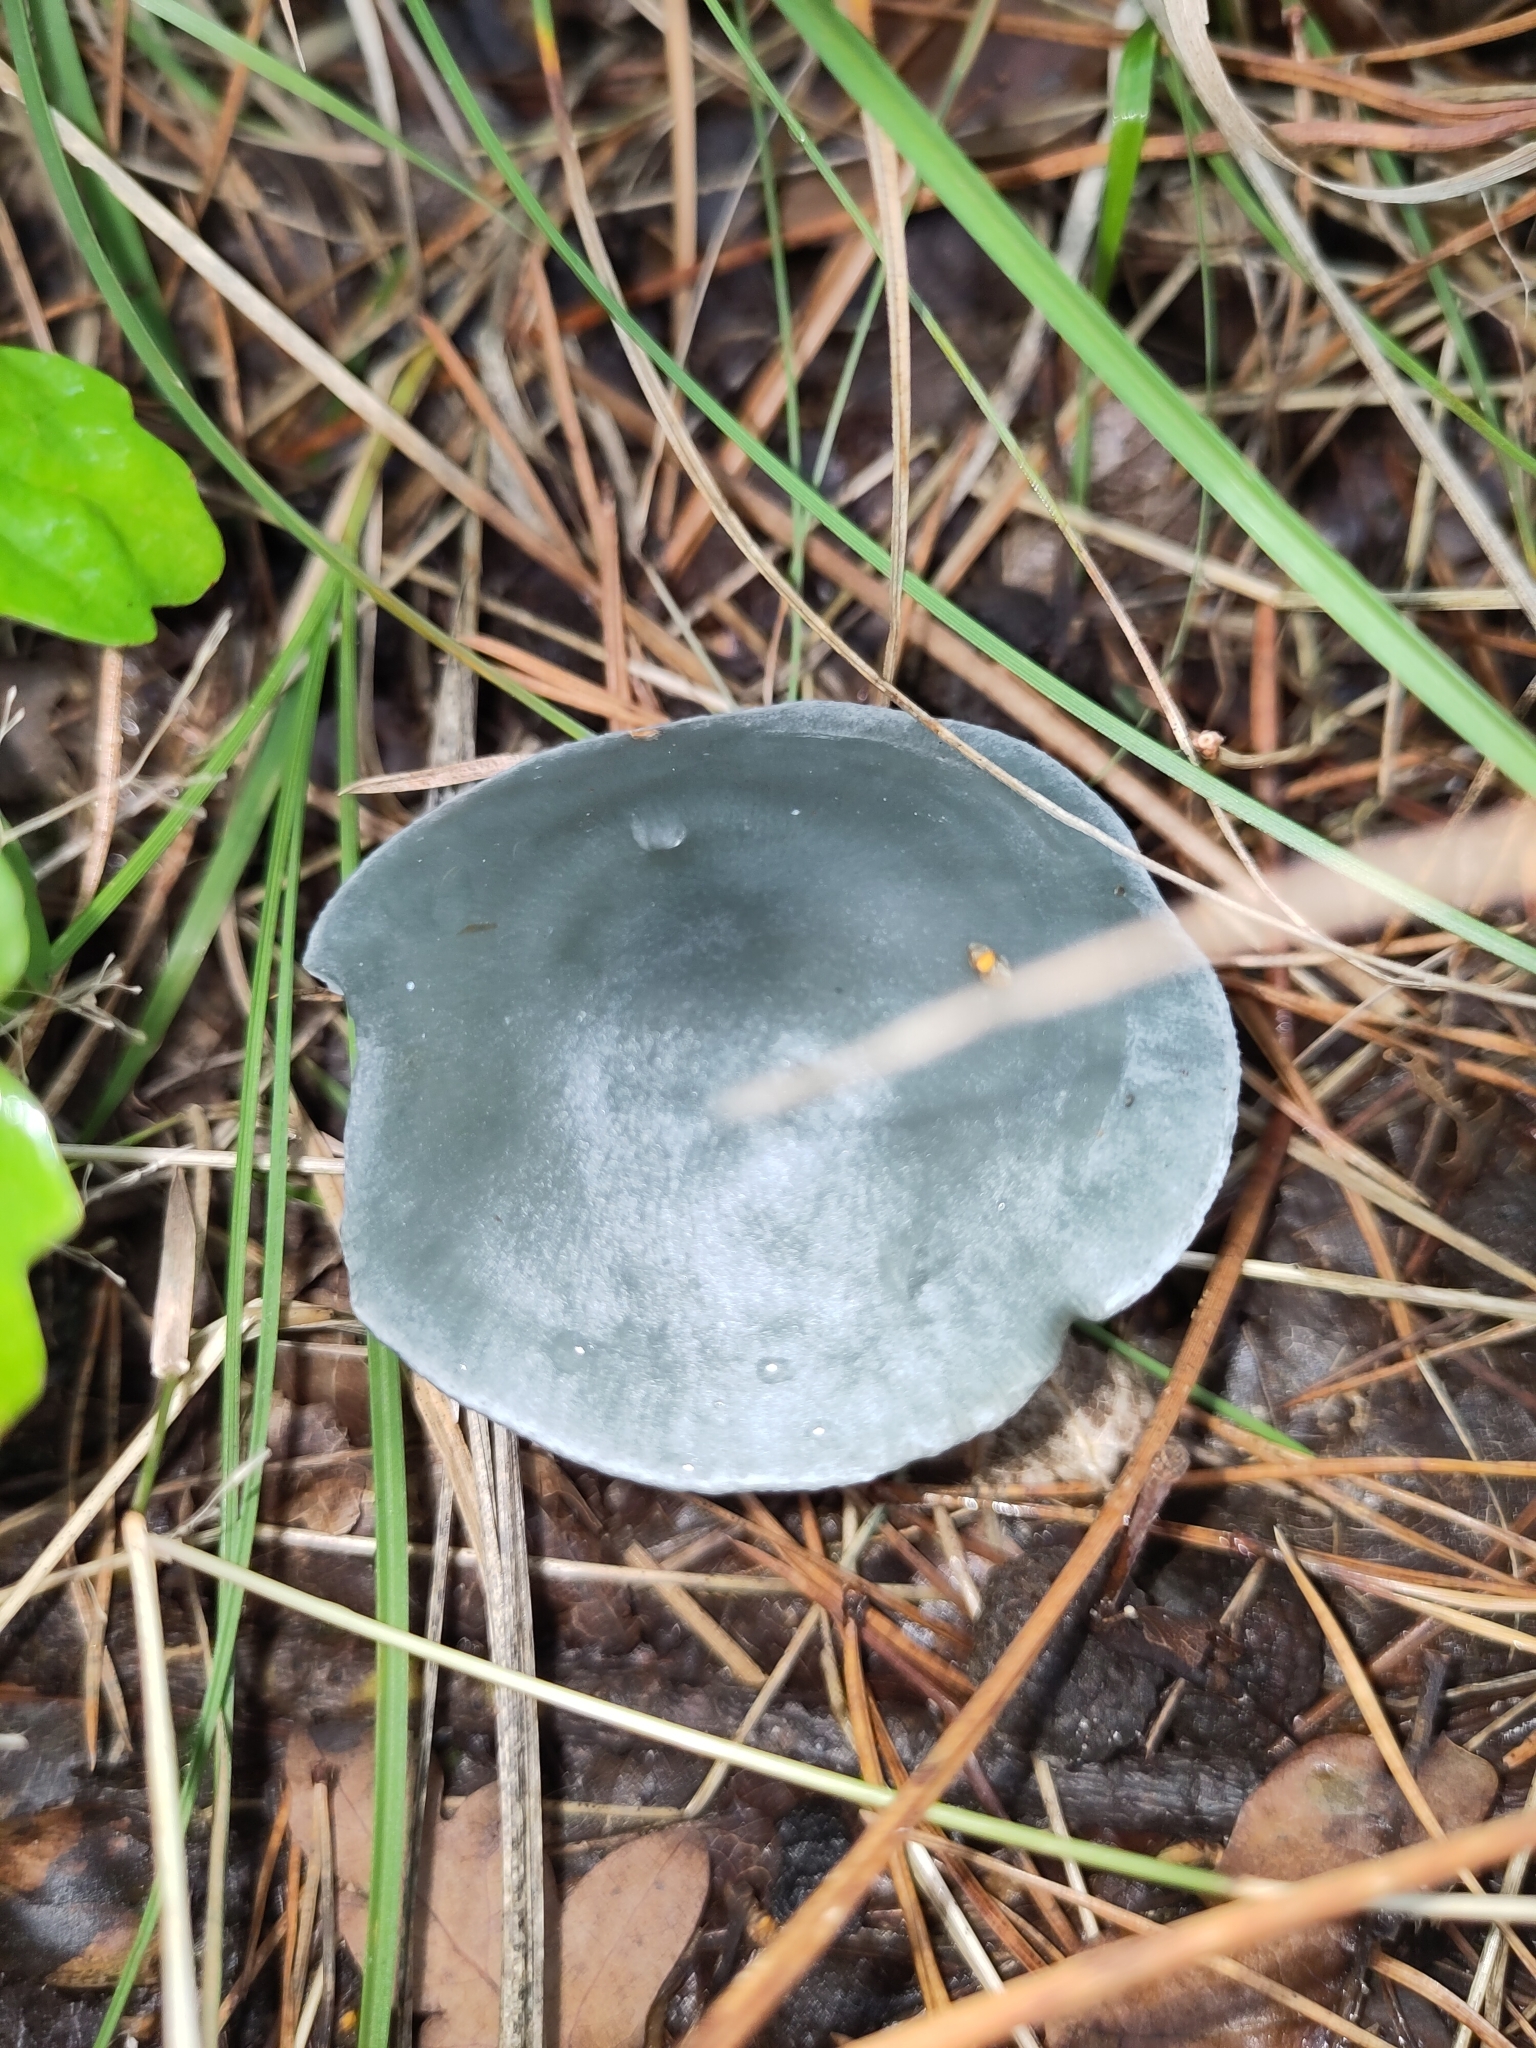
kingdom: Fungi
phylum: Basidiomycota
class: Agaricomycetes
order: Agaricales
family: Tricholomataceae
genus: Collybia
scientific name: Collybia
